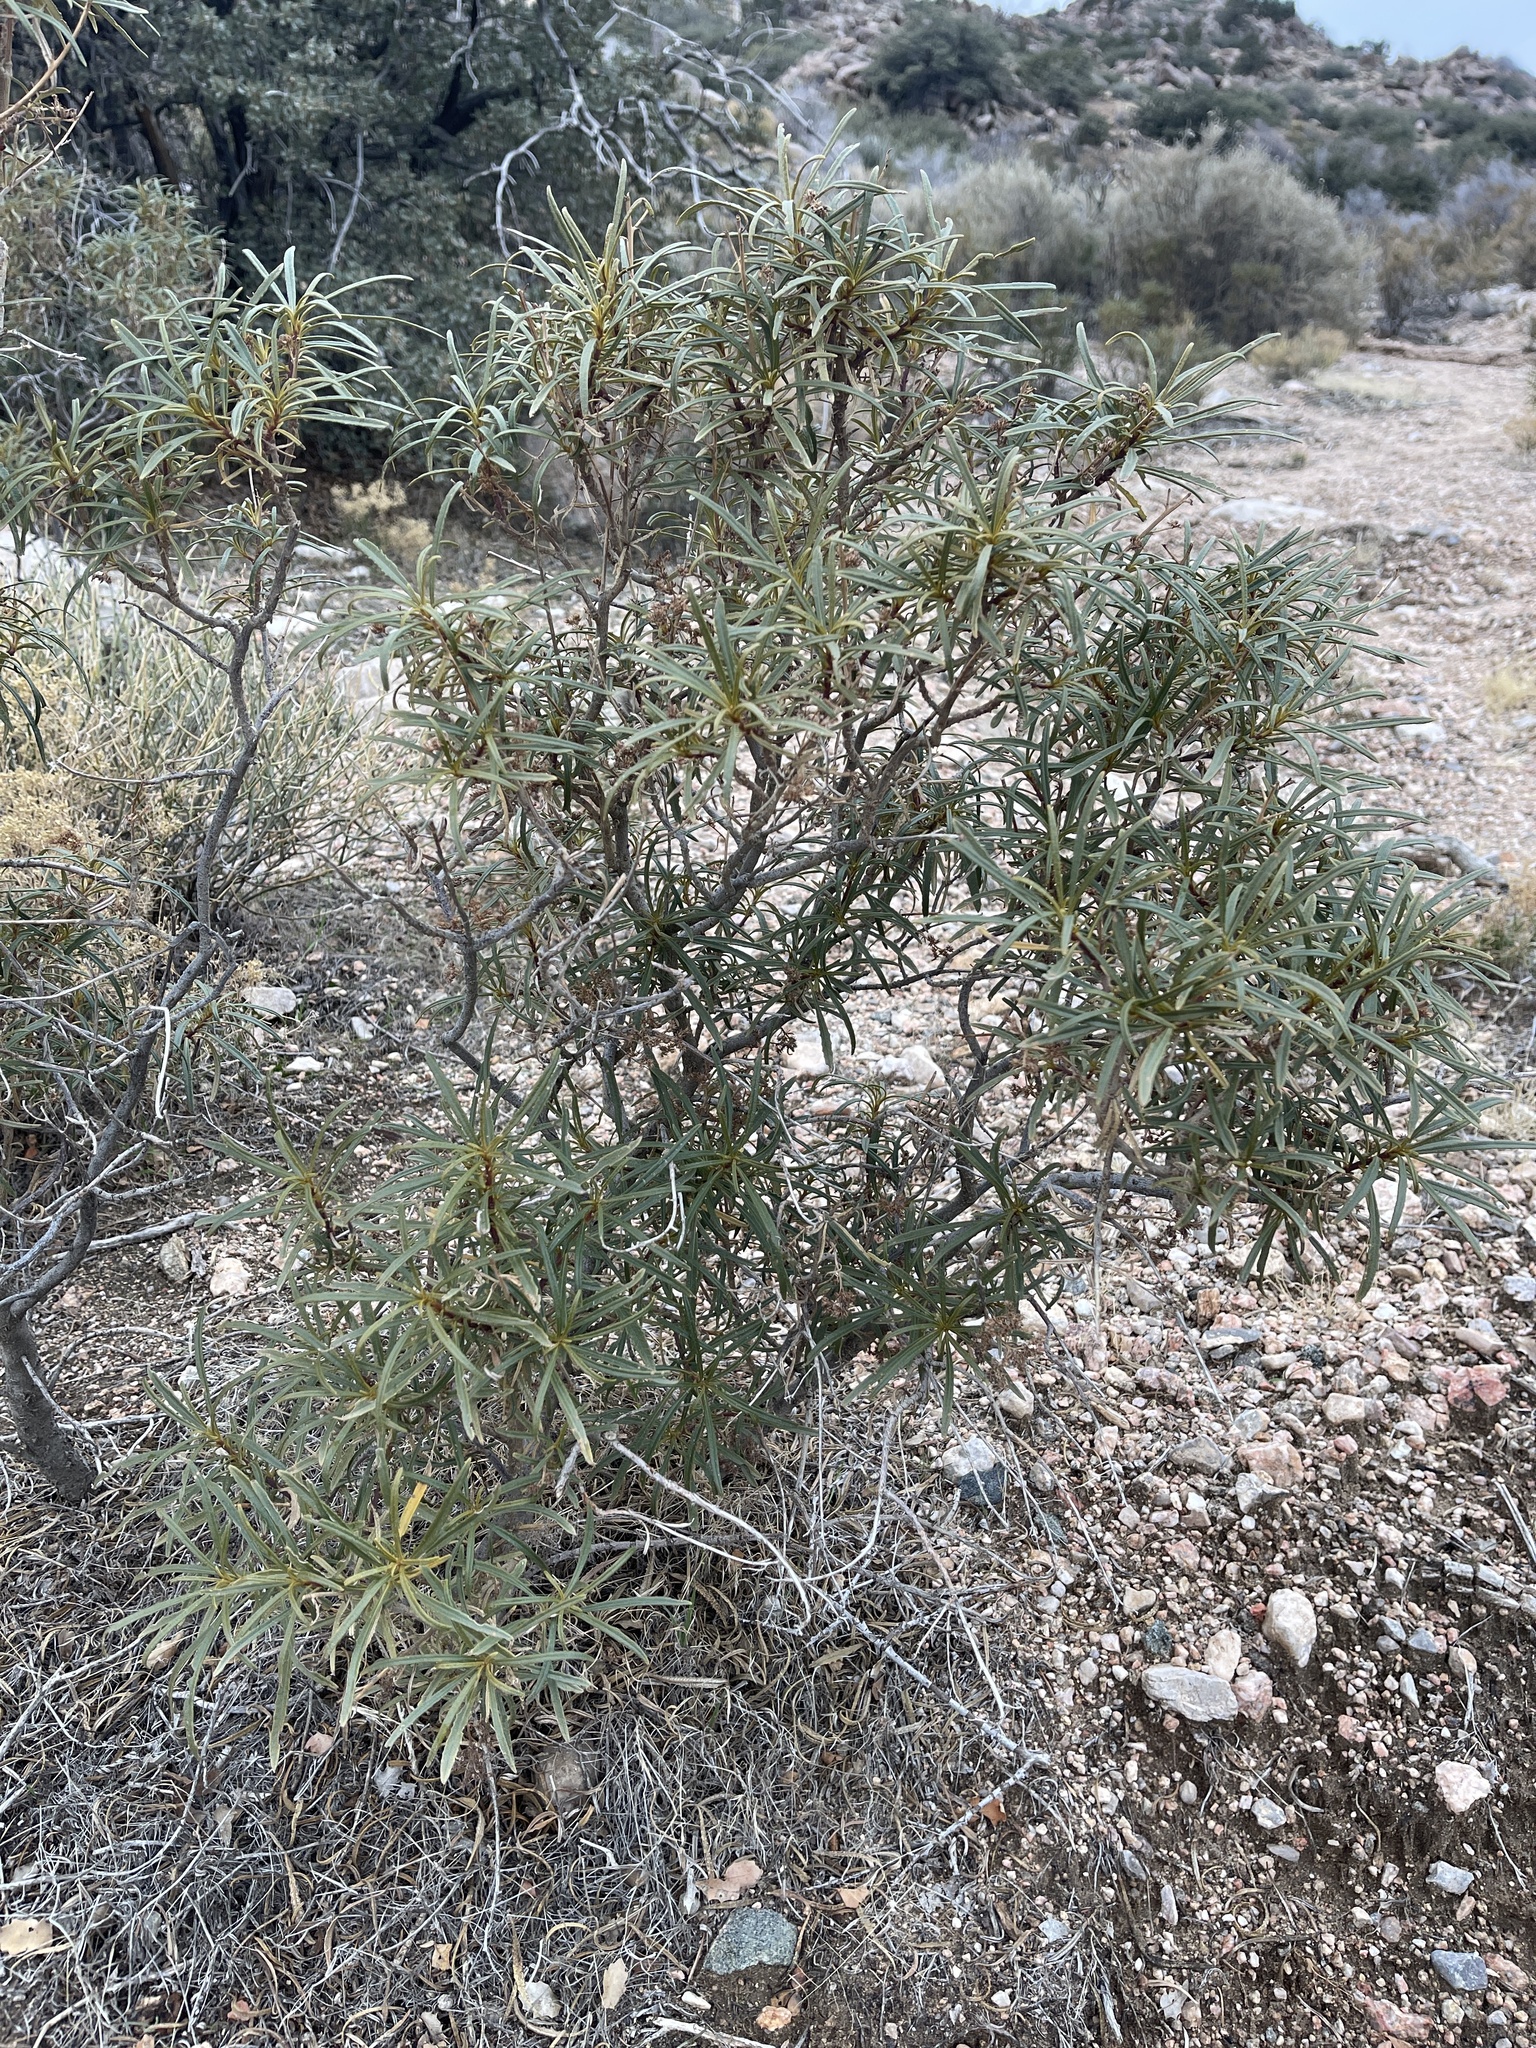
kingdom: Plantae
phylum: Tracheophyta
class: Magnoliopsida
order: Boraginales
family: Namaceae
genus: Eriodictyon
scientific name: Eriodictyon angustifolium
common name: Narrow-leaf yerba santa
